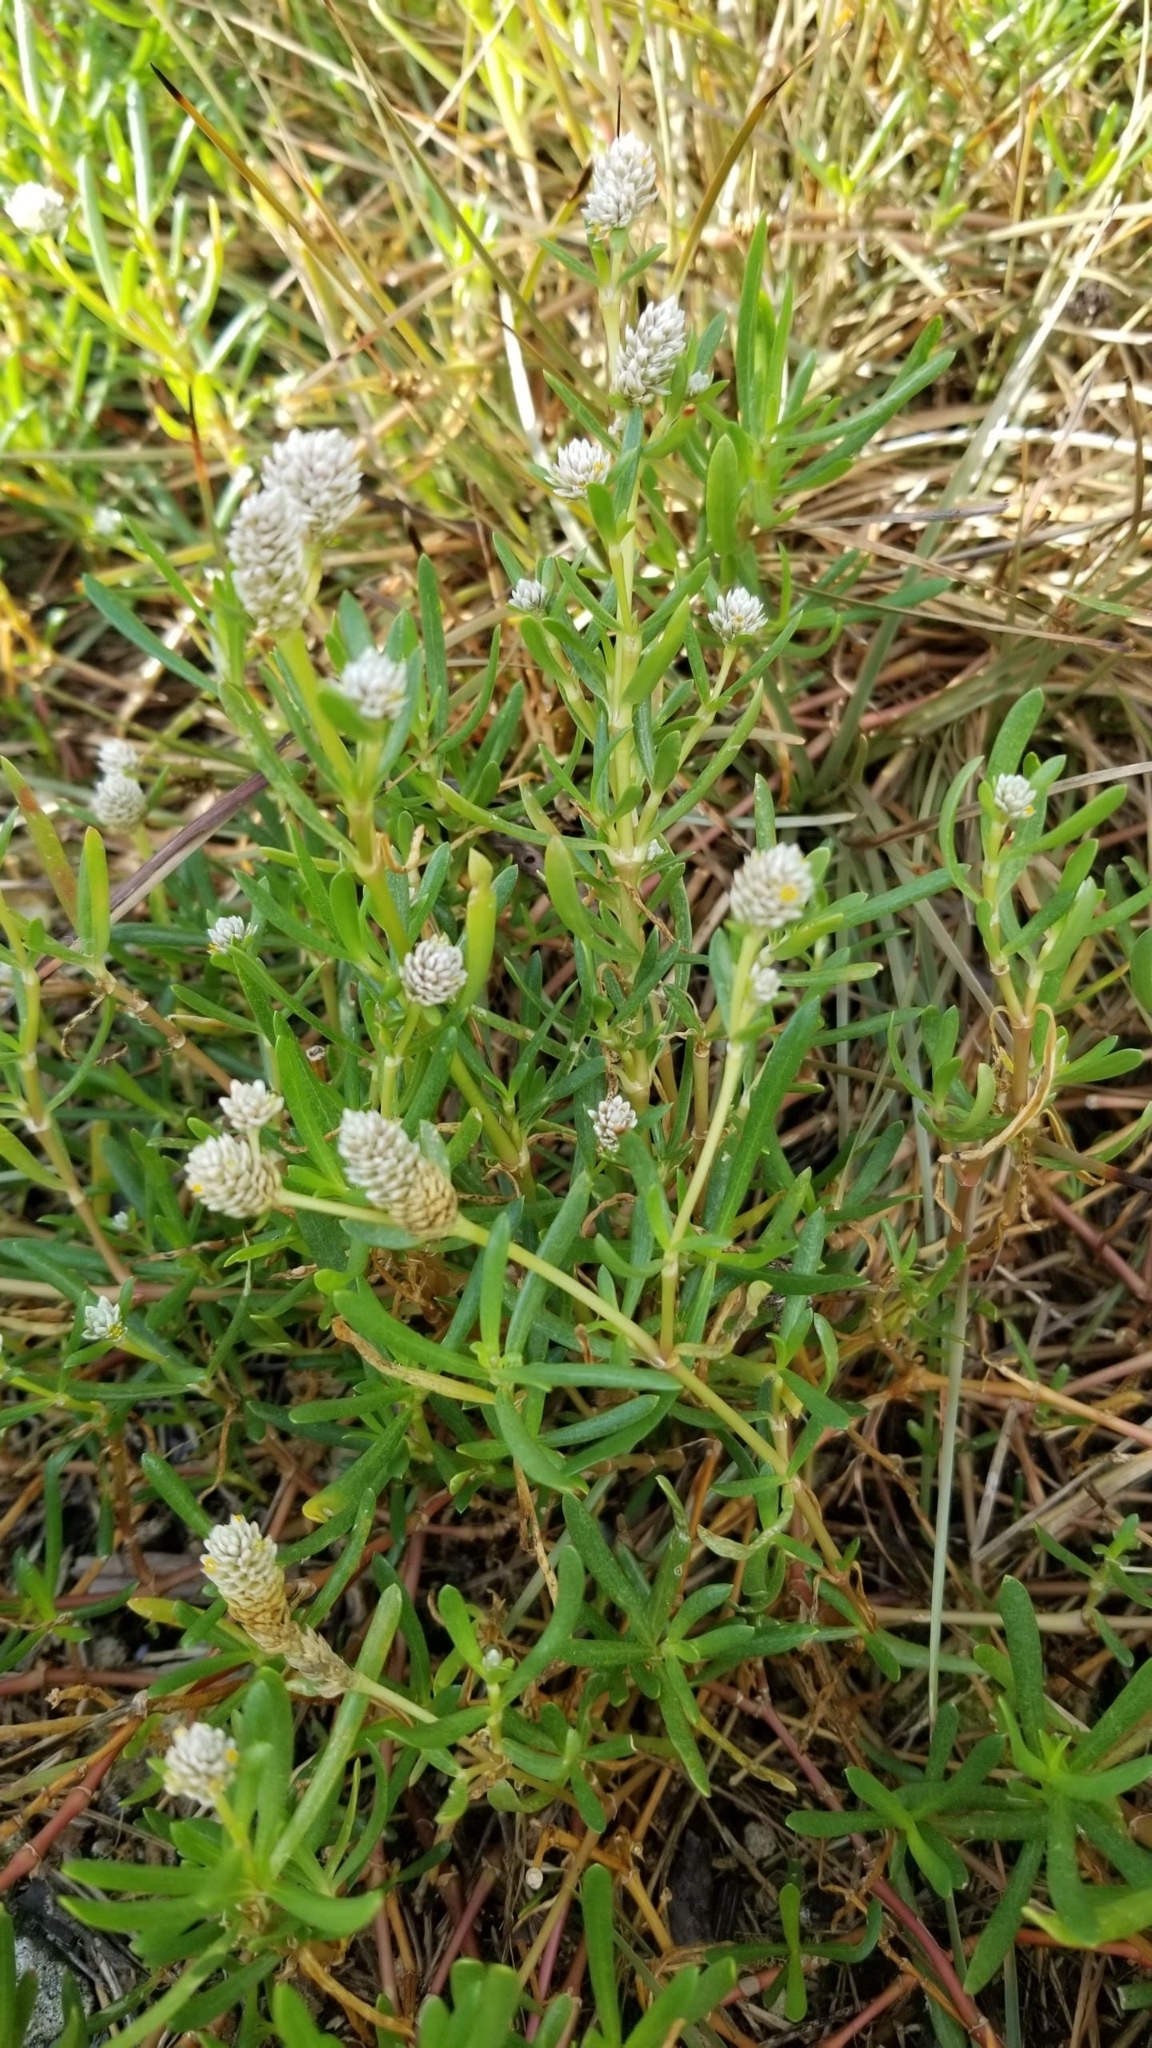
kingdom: Plantae
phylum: Tracheophyta
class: Magnoliopsida
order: Caryophyllales
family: Amaranthaceae
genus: Gomphrena
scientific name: Gomphrena vermicularis
